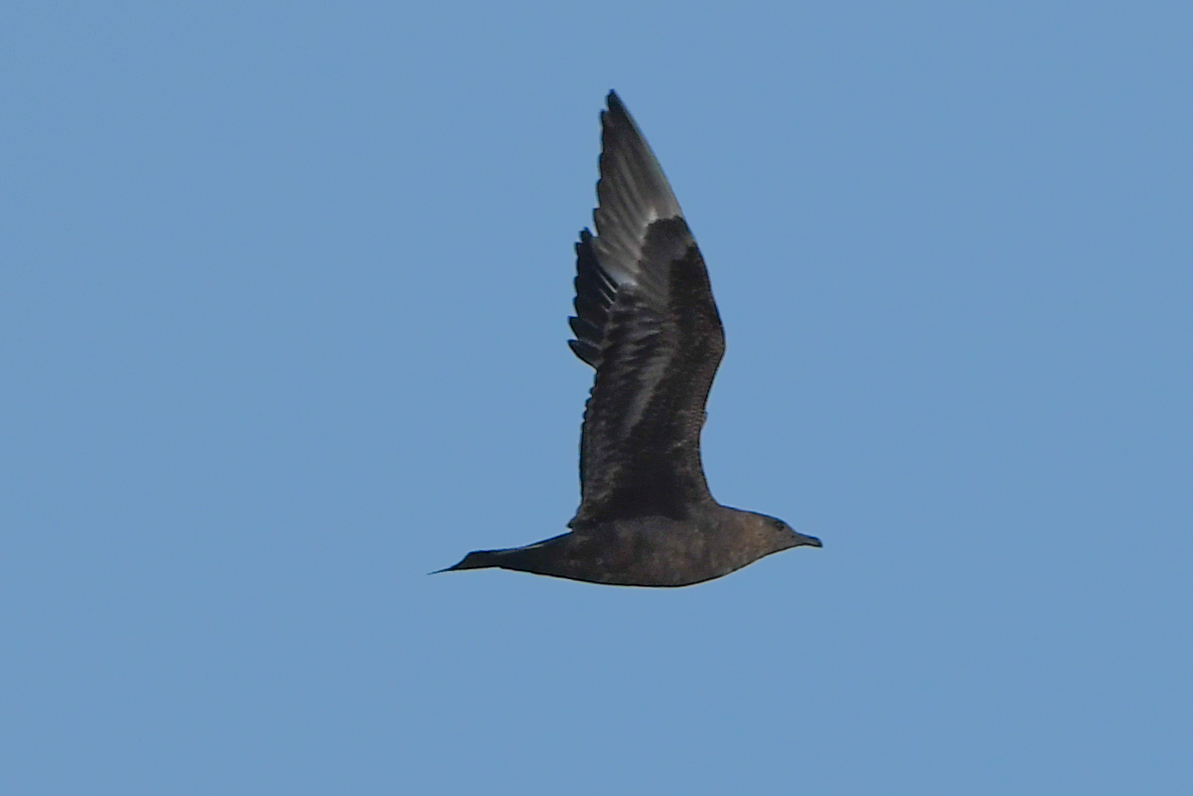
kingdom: Animalia
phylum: Chordata
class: Aves
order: Charadriiformes
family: Stercorariidae
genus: Stercorarius
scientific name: Stercorarius parasiticus
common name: Parasitic jaeger
